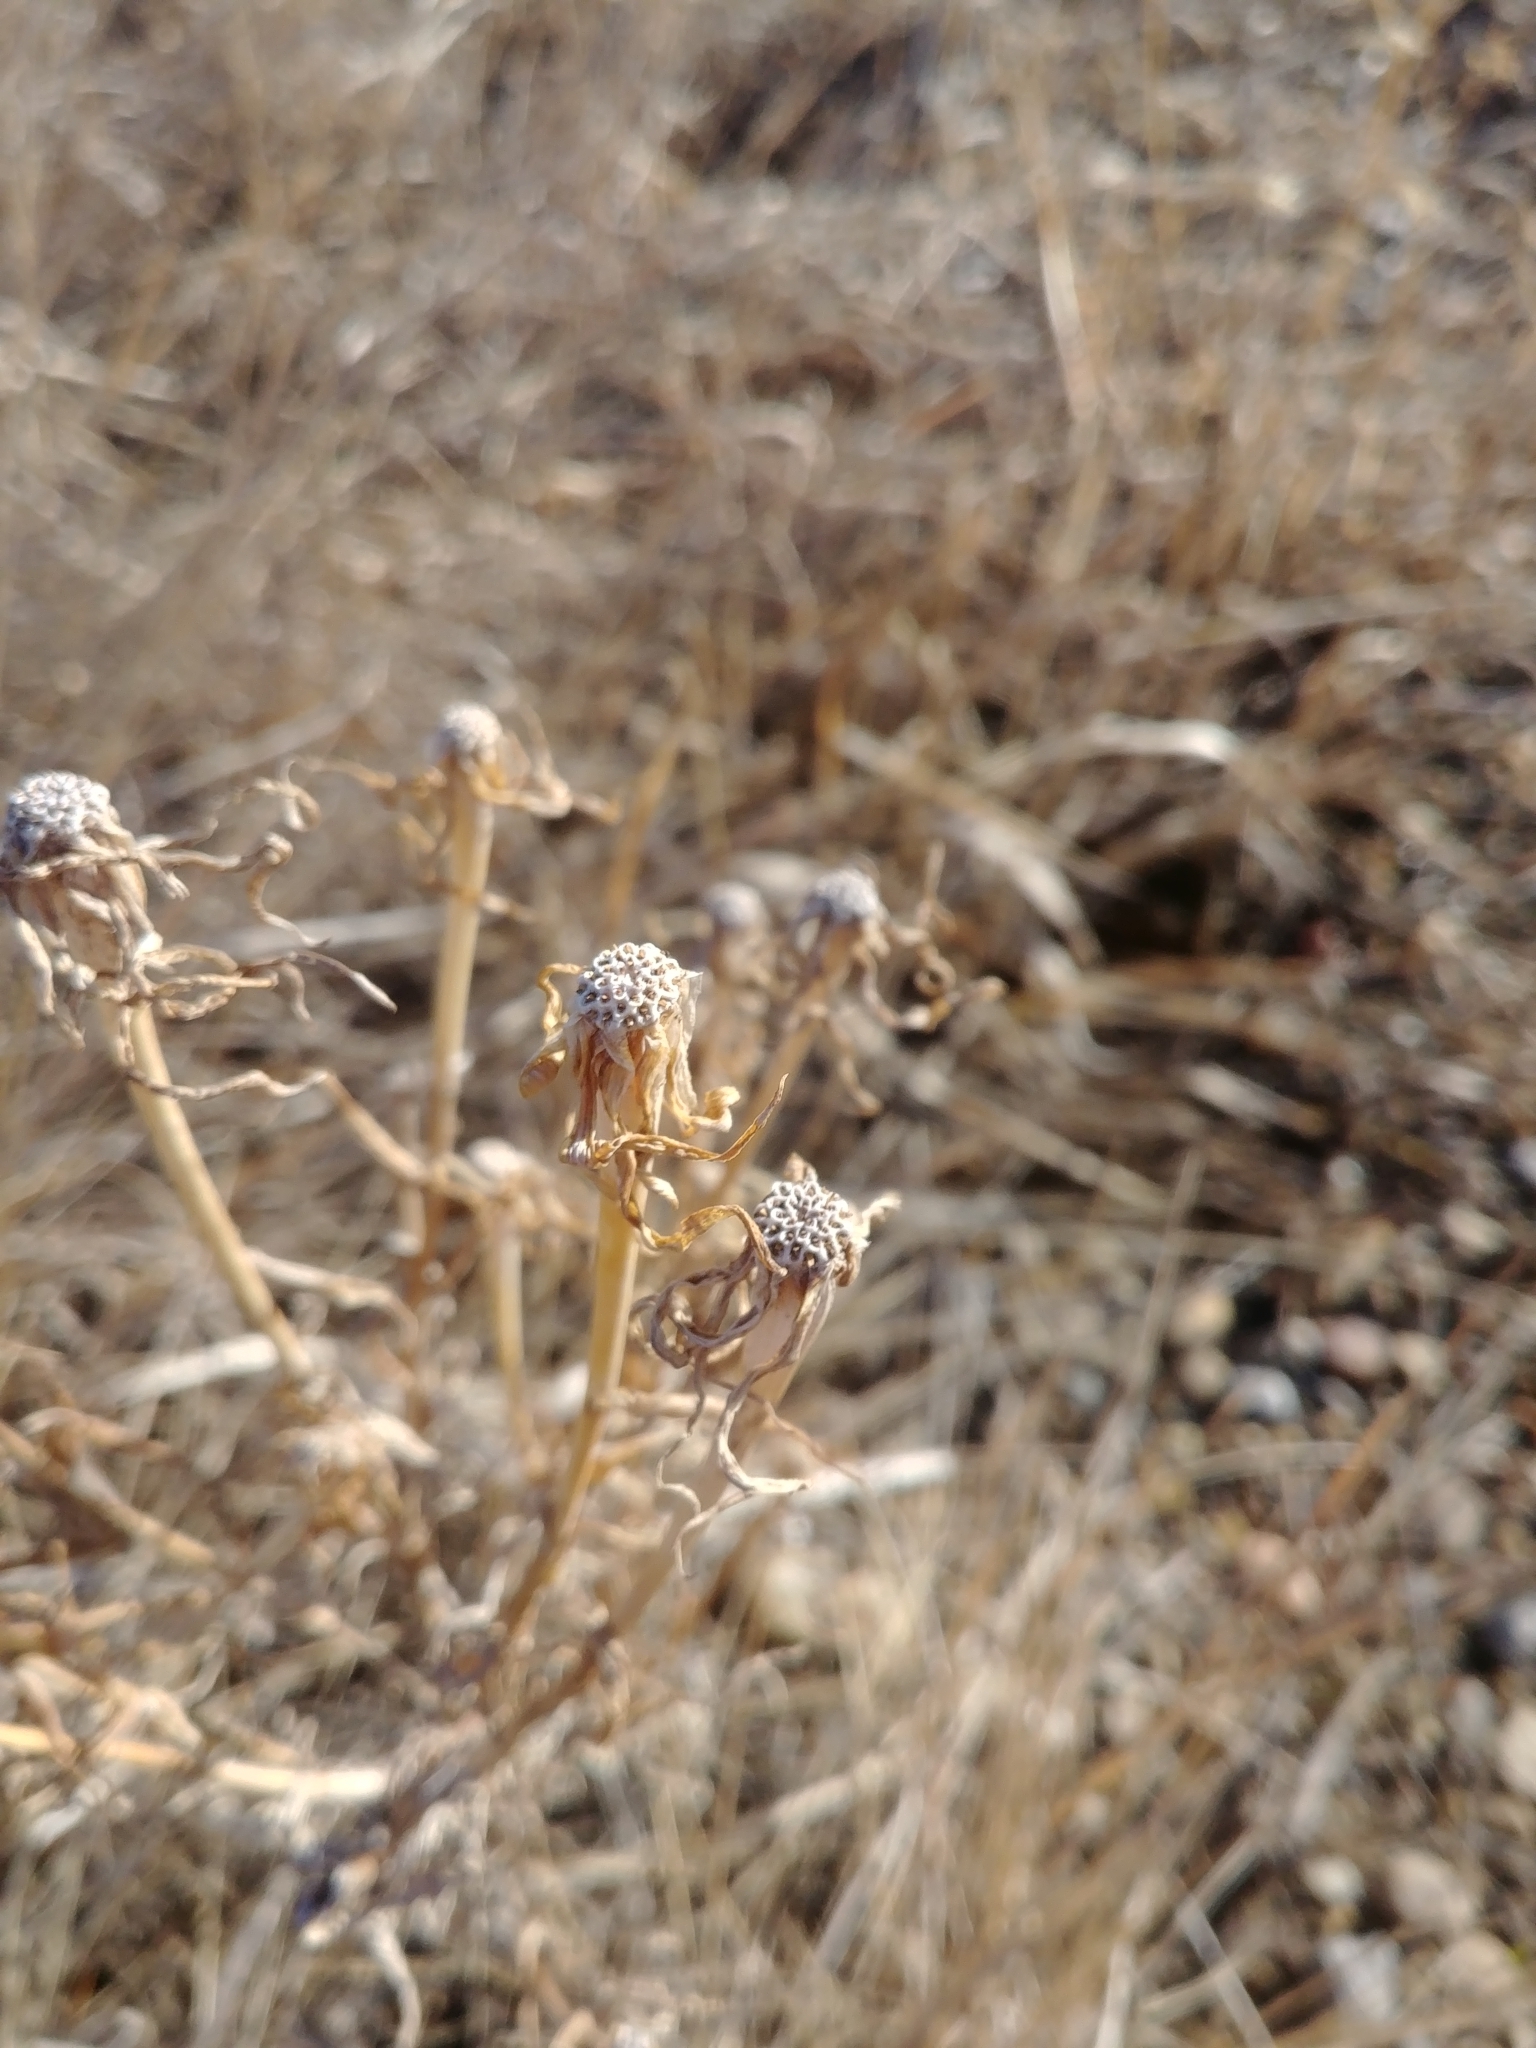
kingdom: Plantae
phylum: Tracheophyta
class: Magnoliopsida
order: Asterales
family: Asteraceae
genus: Tragopogon
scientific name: Tragopogon dubius
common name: Yellow salsify
